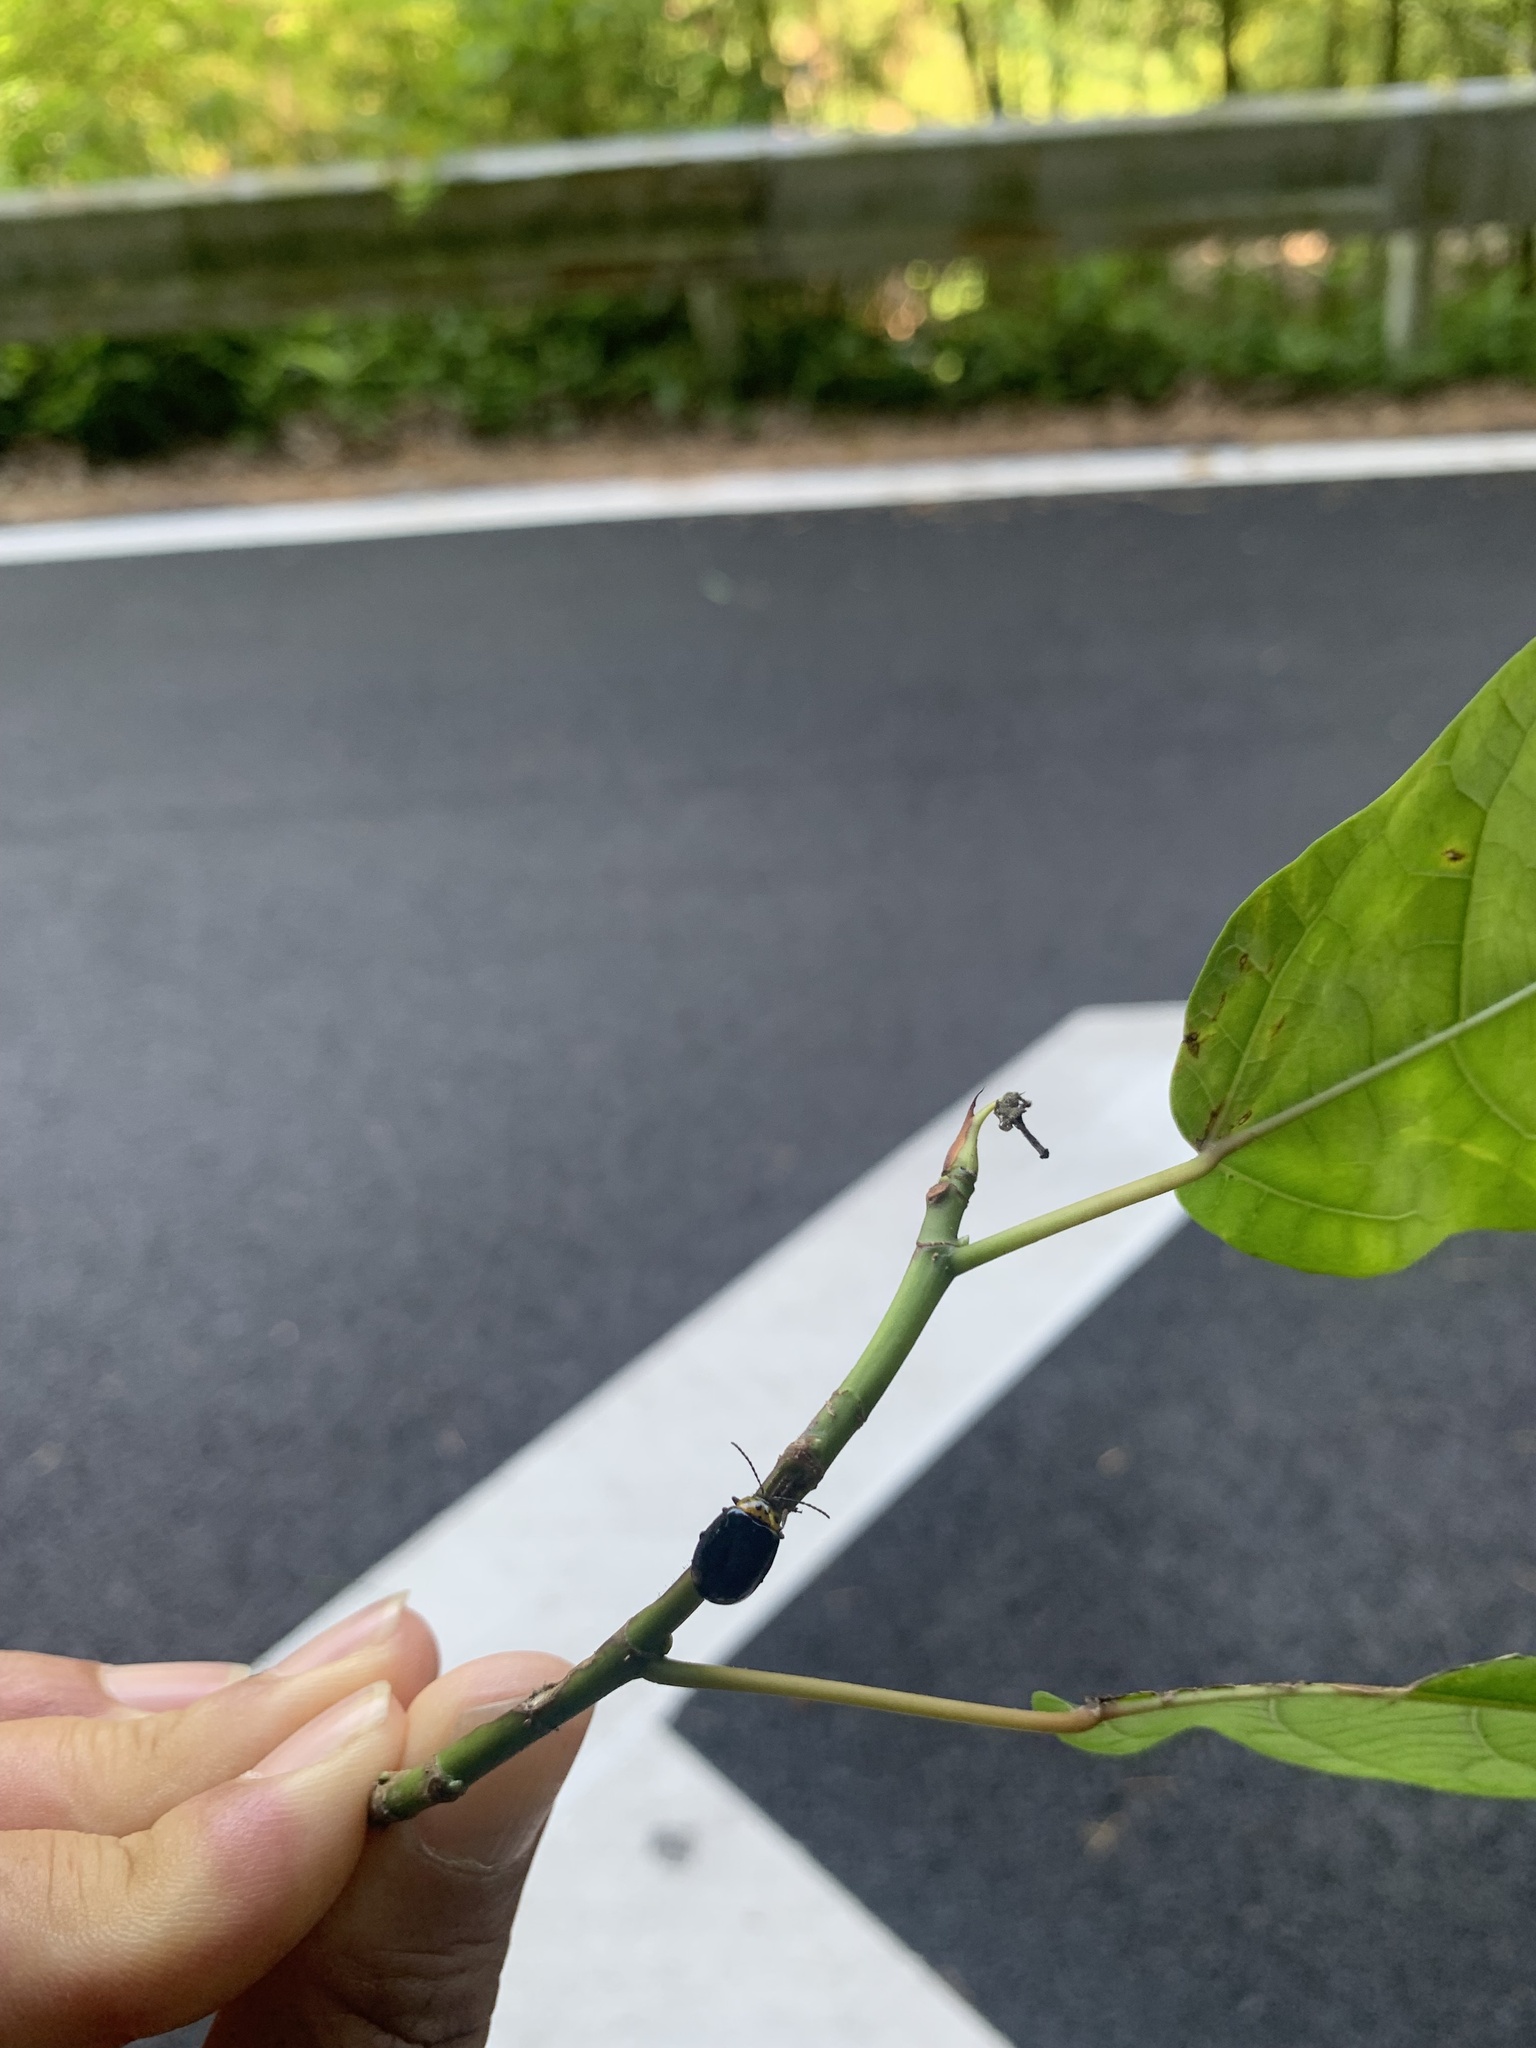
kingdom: Animalia
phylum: Arthropoda
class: Insecta
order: Coleoptera
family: Chrysomelidae
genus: Morphosphaera
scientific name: Morphosphaera japonica
